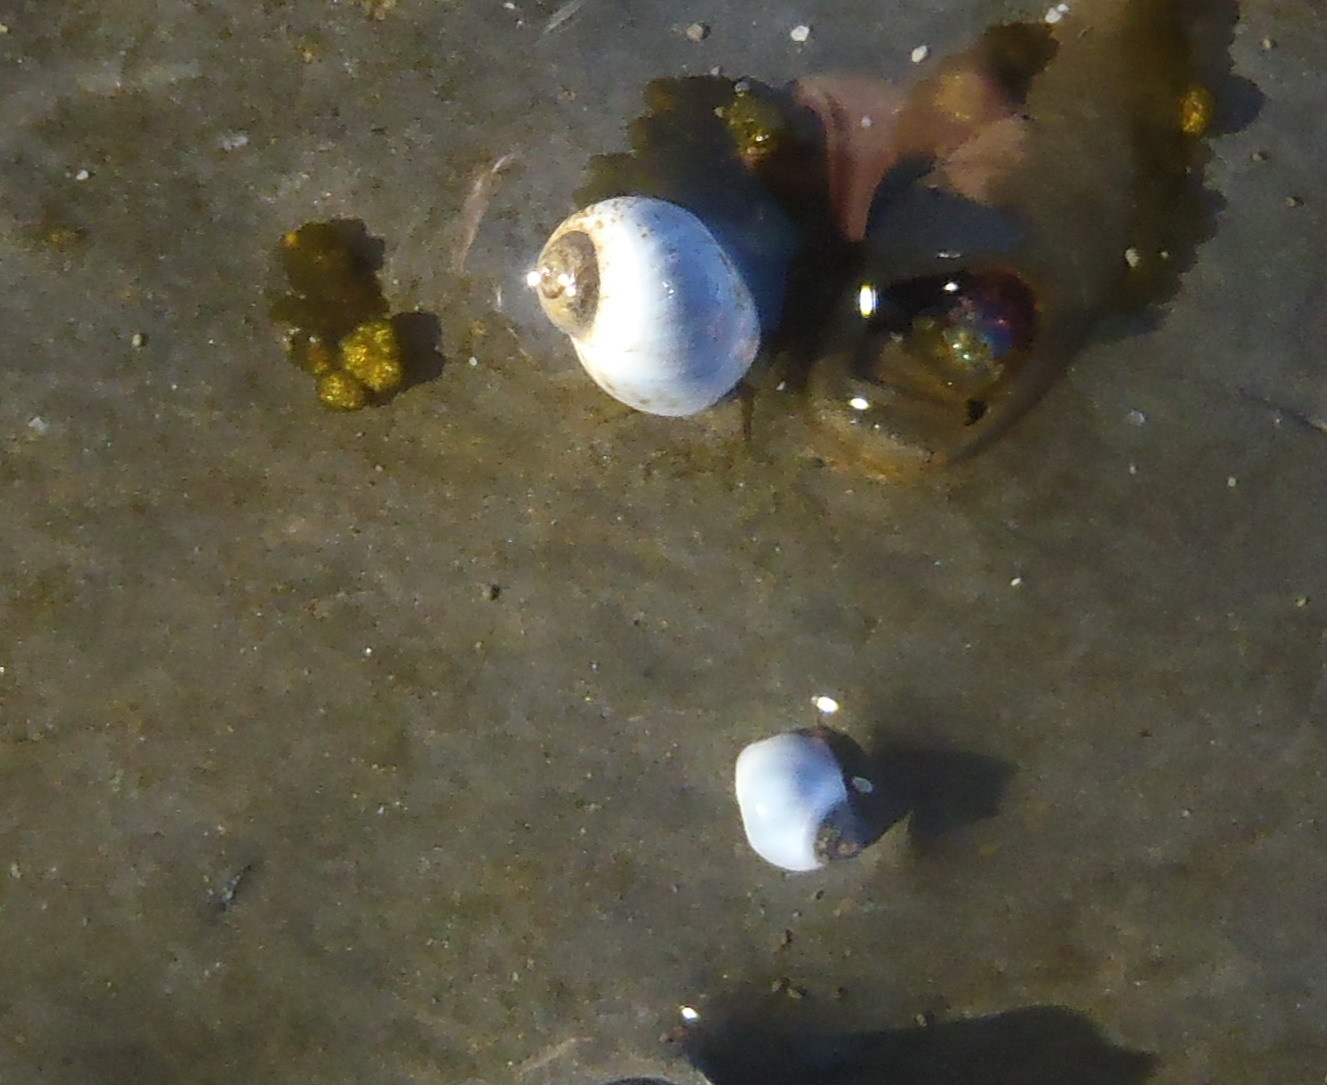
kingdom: Animalia
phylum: Mollusca
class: Gastropoda
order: Littorinimorpha
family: Littorinidae
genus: Afrolittorina
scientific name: Afrolittorina africana
